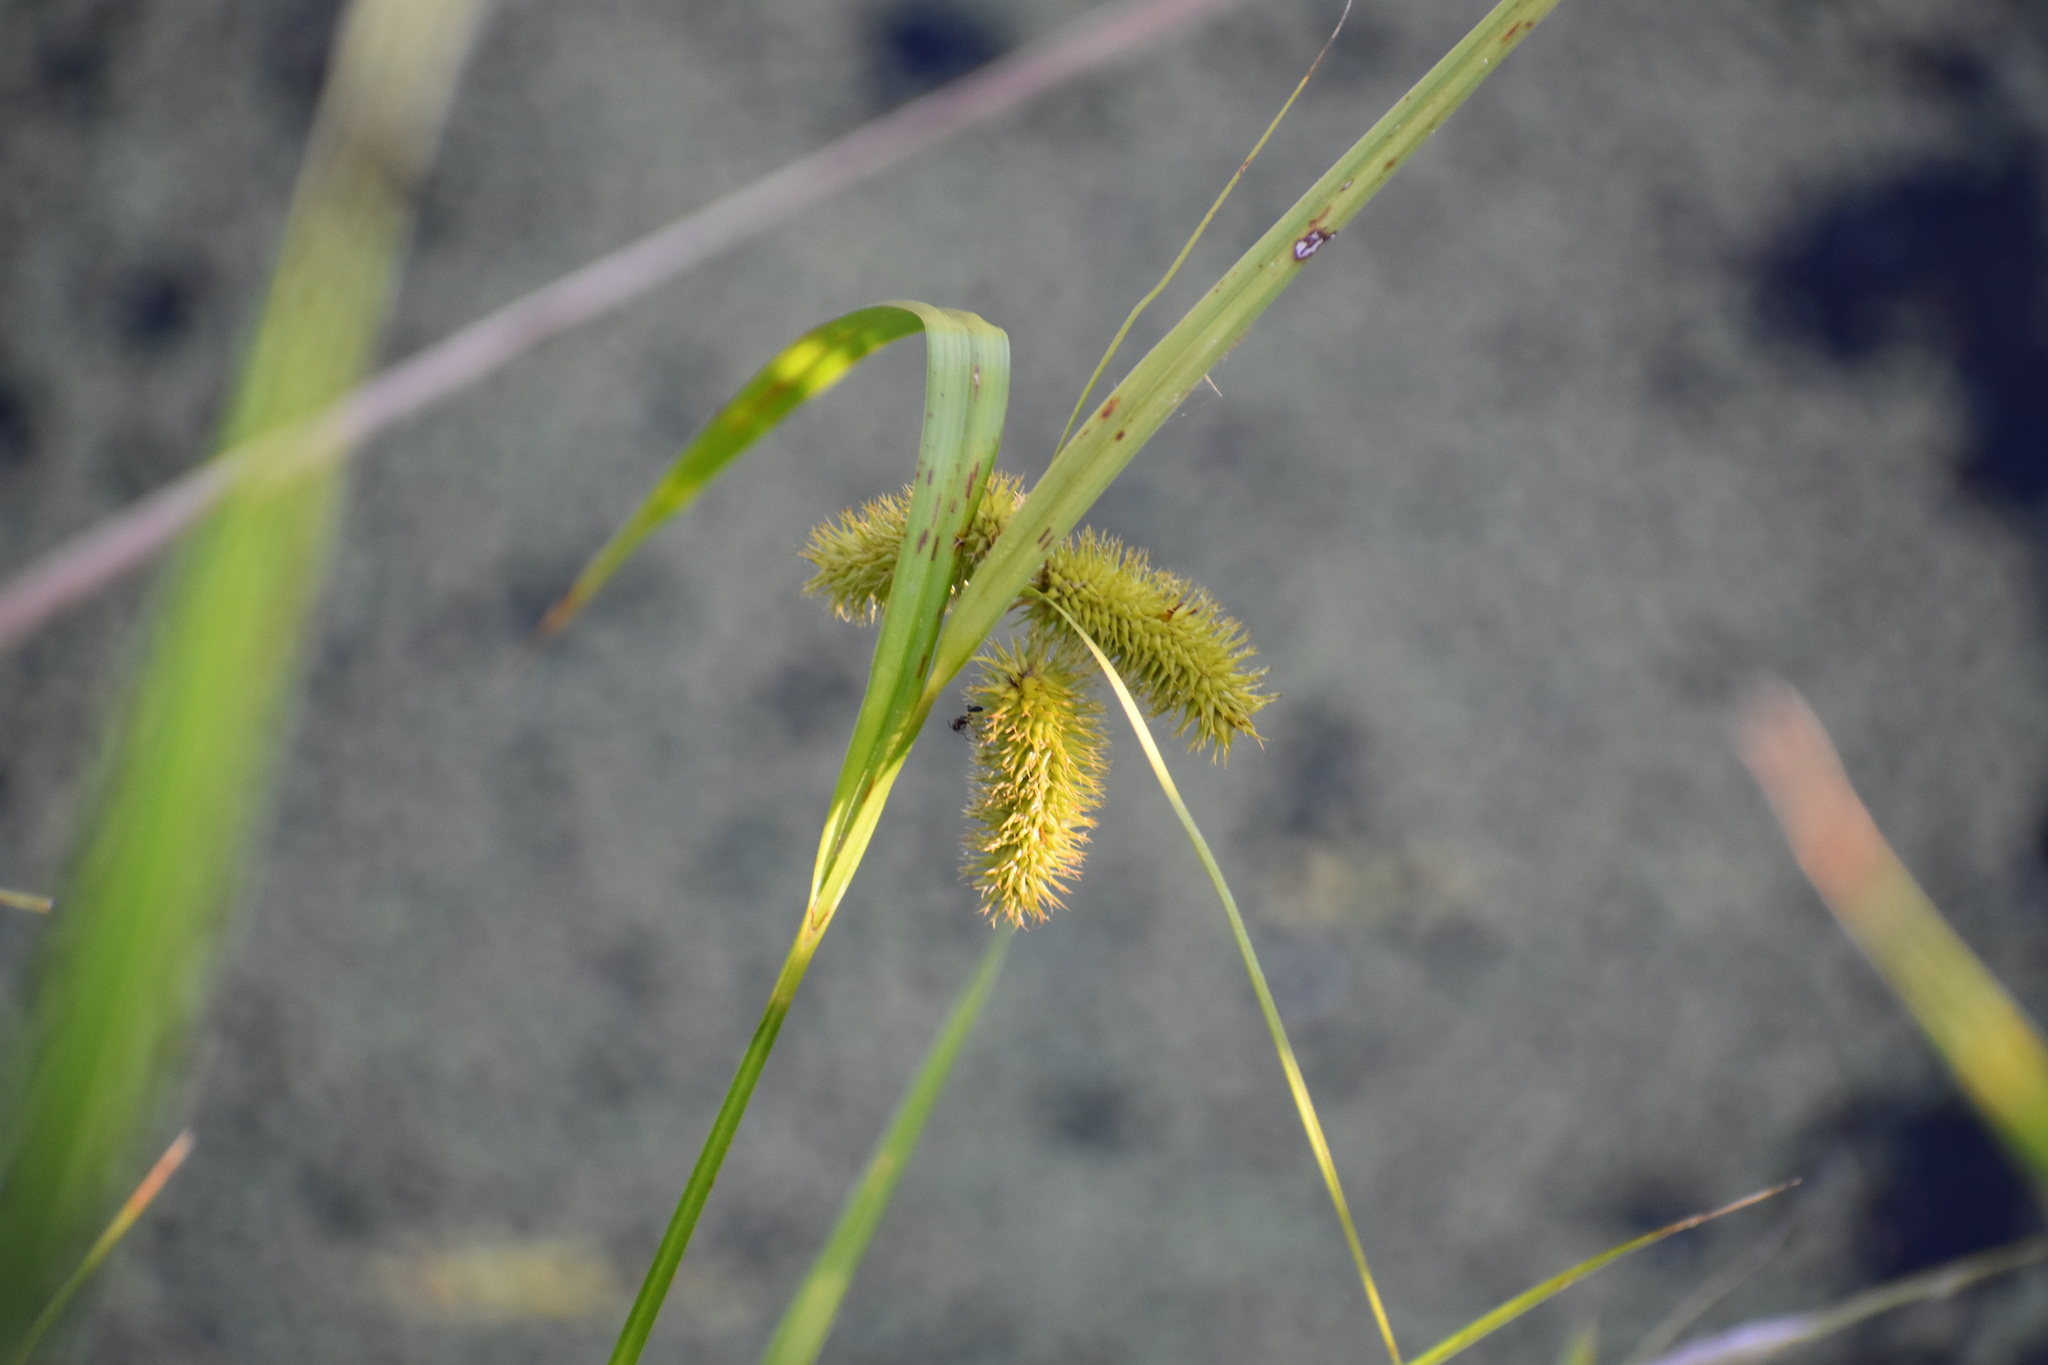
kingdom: Plantae
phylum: Tracheophyta
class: Liliopsida
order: Poales
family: Cyperaceae
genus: Carex
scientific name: Carex comosa
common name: Bristly sedge
